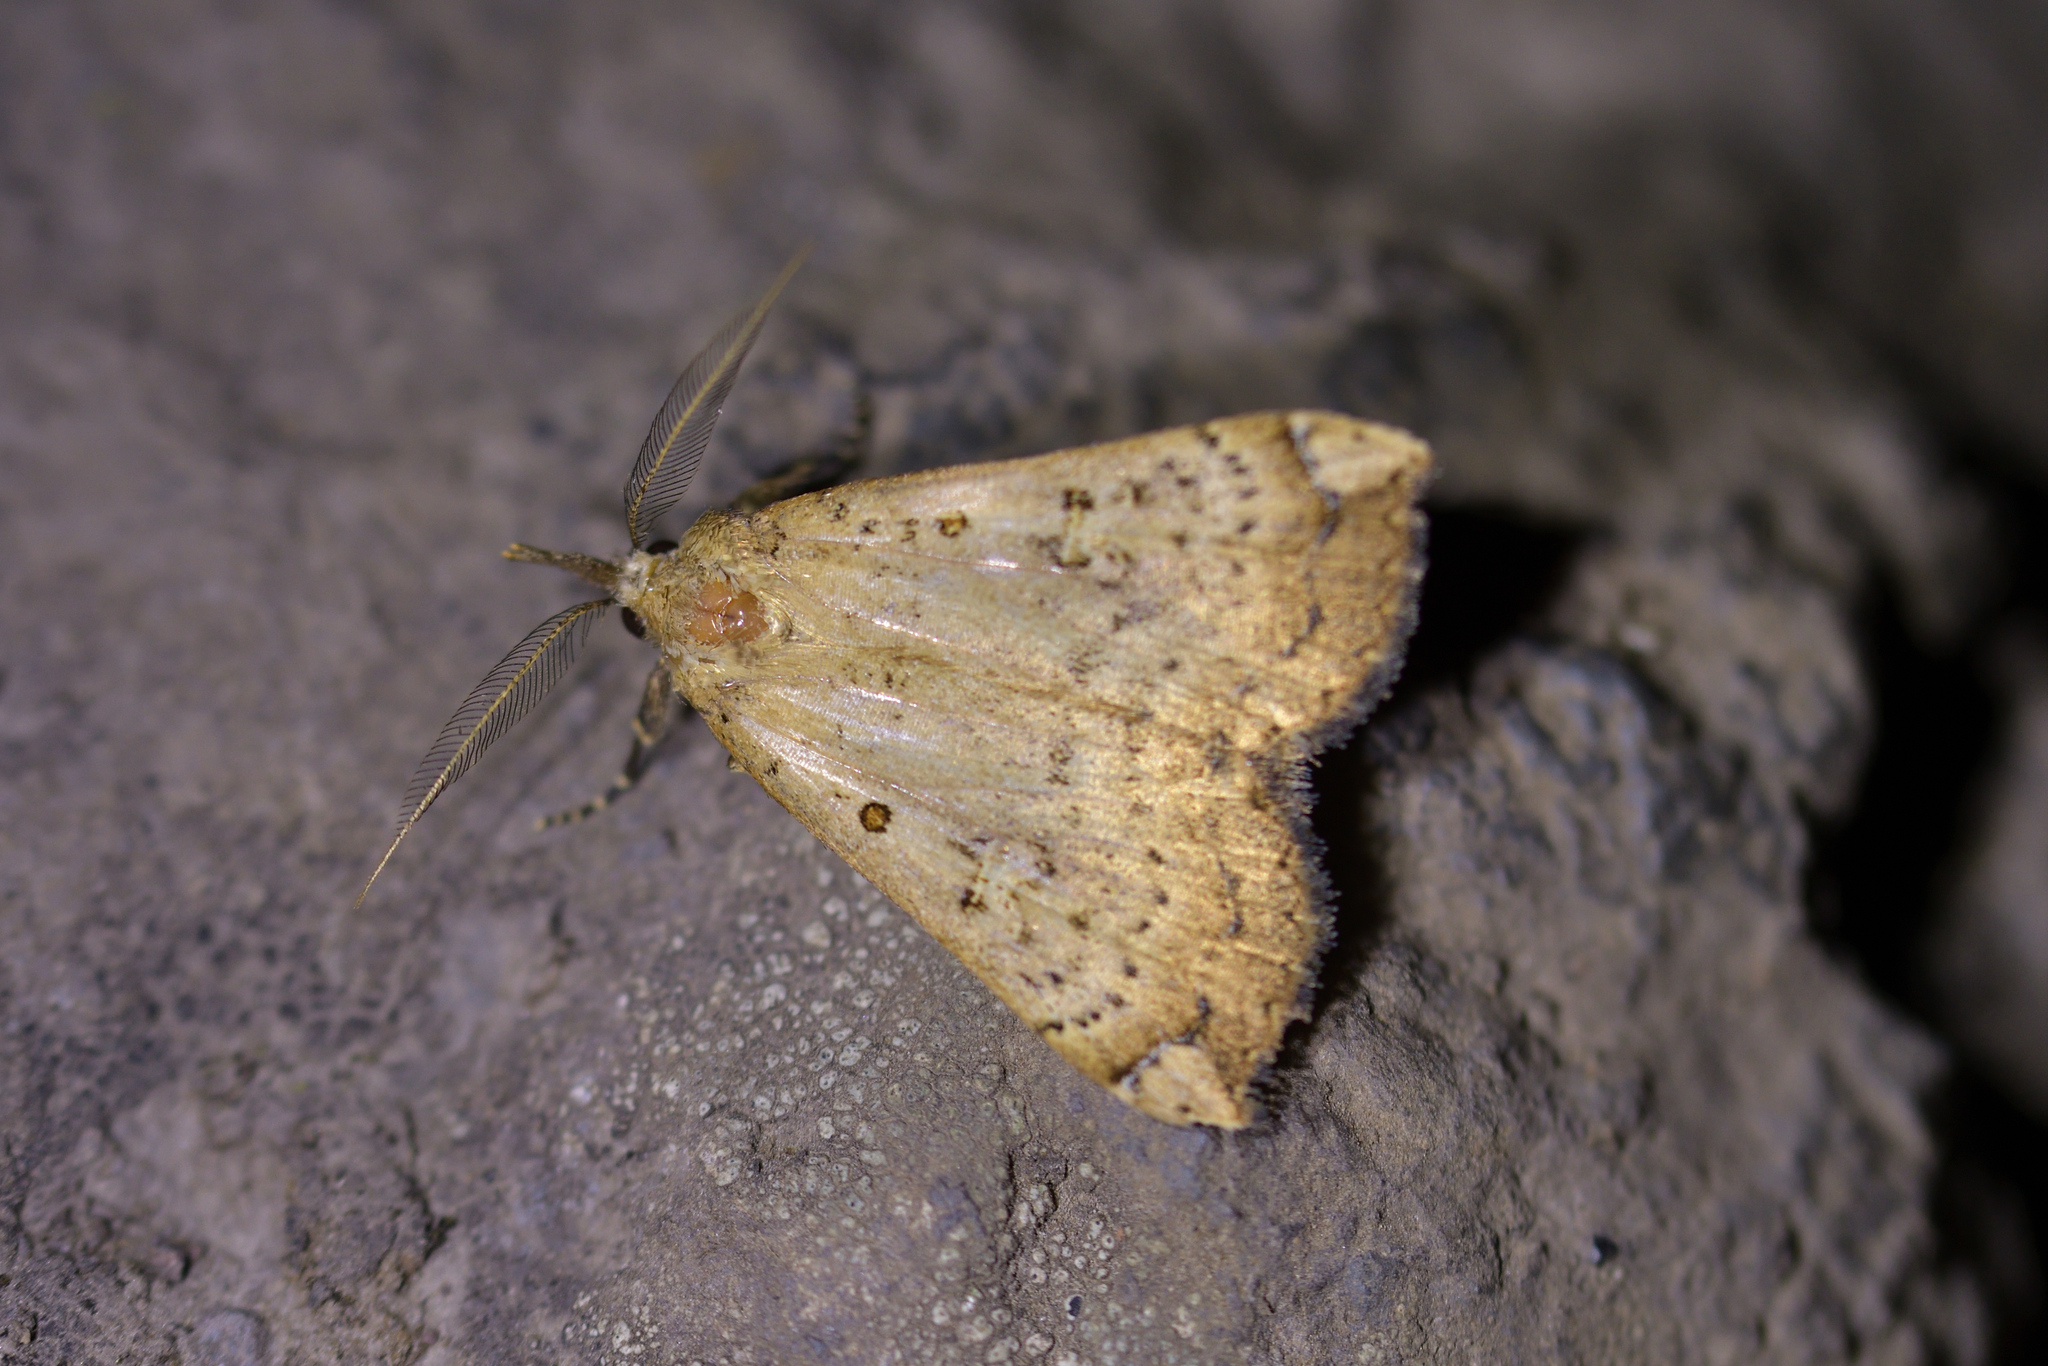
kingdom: Animalia
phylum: Arthropoda
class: Insecta
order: Lepidoptera
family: Erebidae
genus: Rhapsa
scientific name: Rhapsa scotosialis
